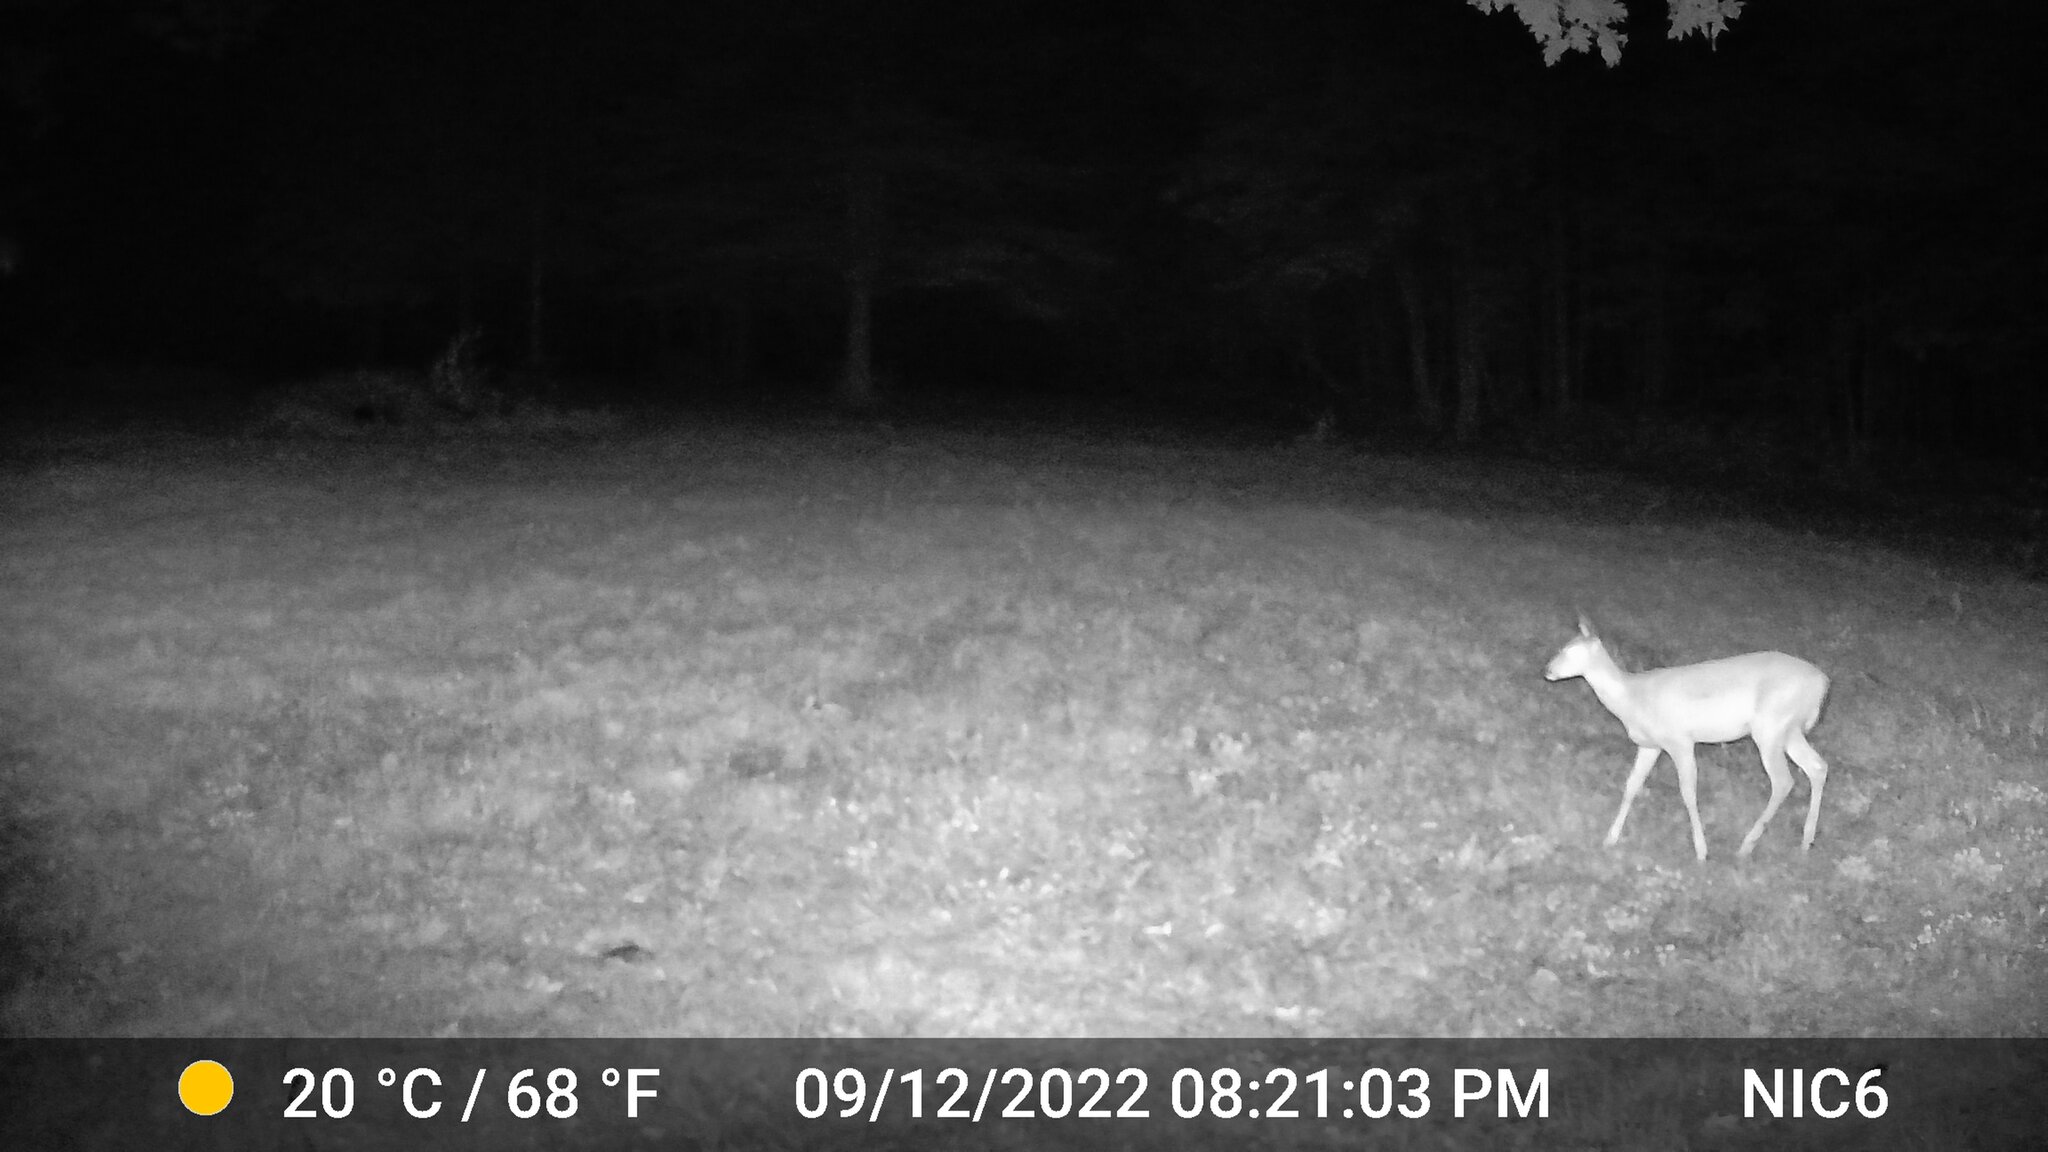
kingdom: Animalia
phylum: Chordata
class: Mammalia
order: Artiodactyla
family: Cervidae
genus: Odocoileus
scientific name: Odocoileus virginianus
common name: White-tailed deer
